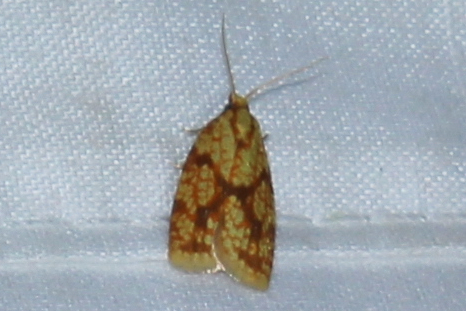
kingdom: Animalia
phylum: Arthropoda
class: Insecta
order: Lepidoptera
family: Tortricidae
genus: Sparganothis
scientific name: Sparganothis sulfureana
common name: Sparganothis fruitworm moth
